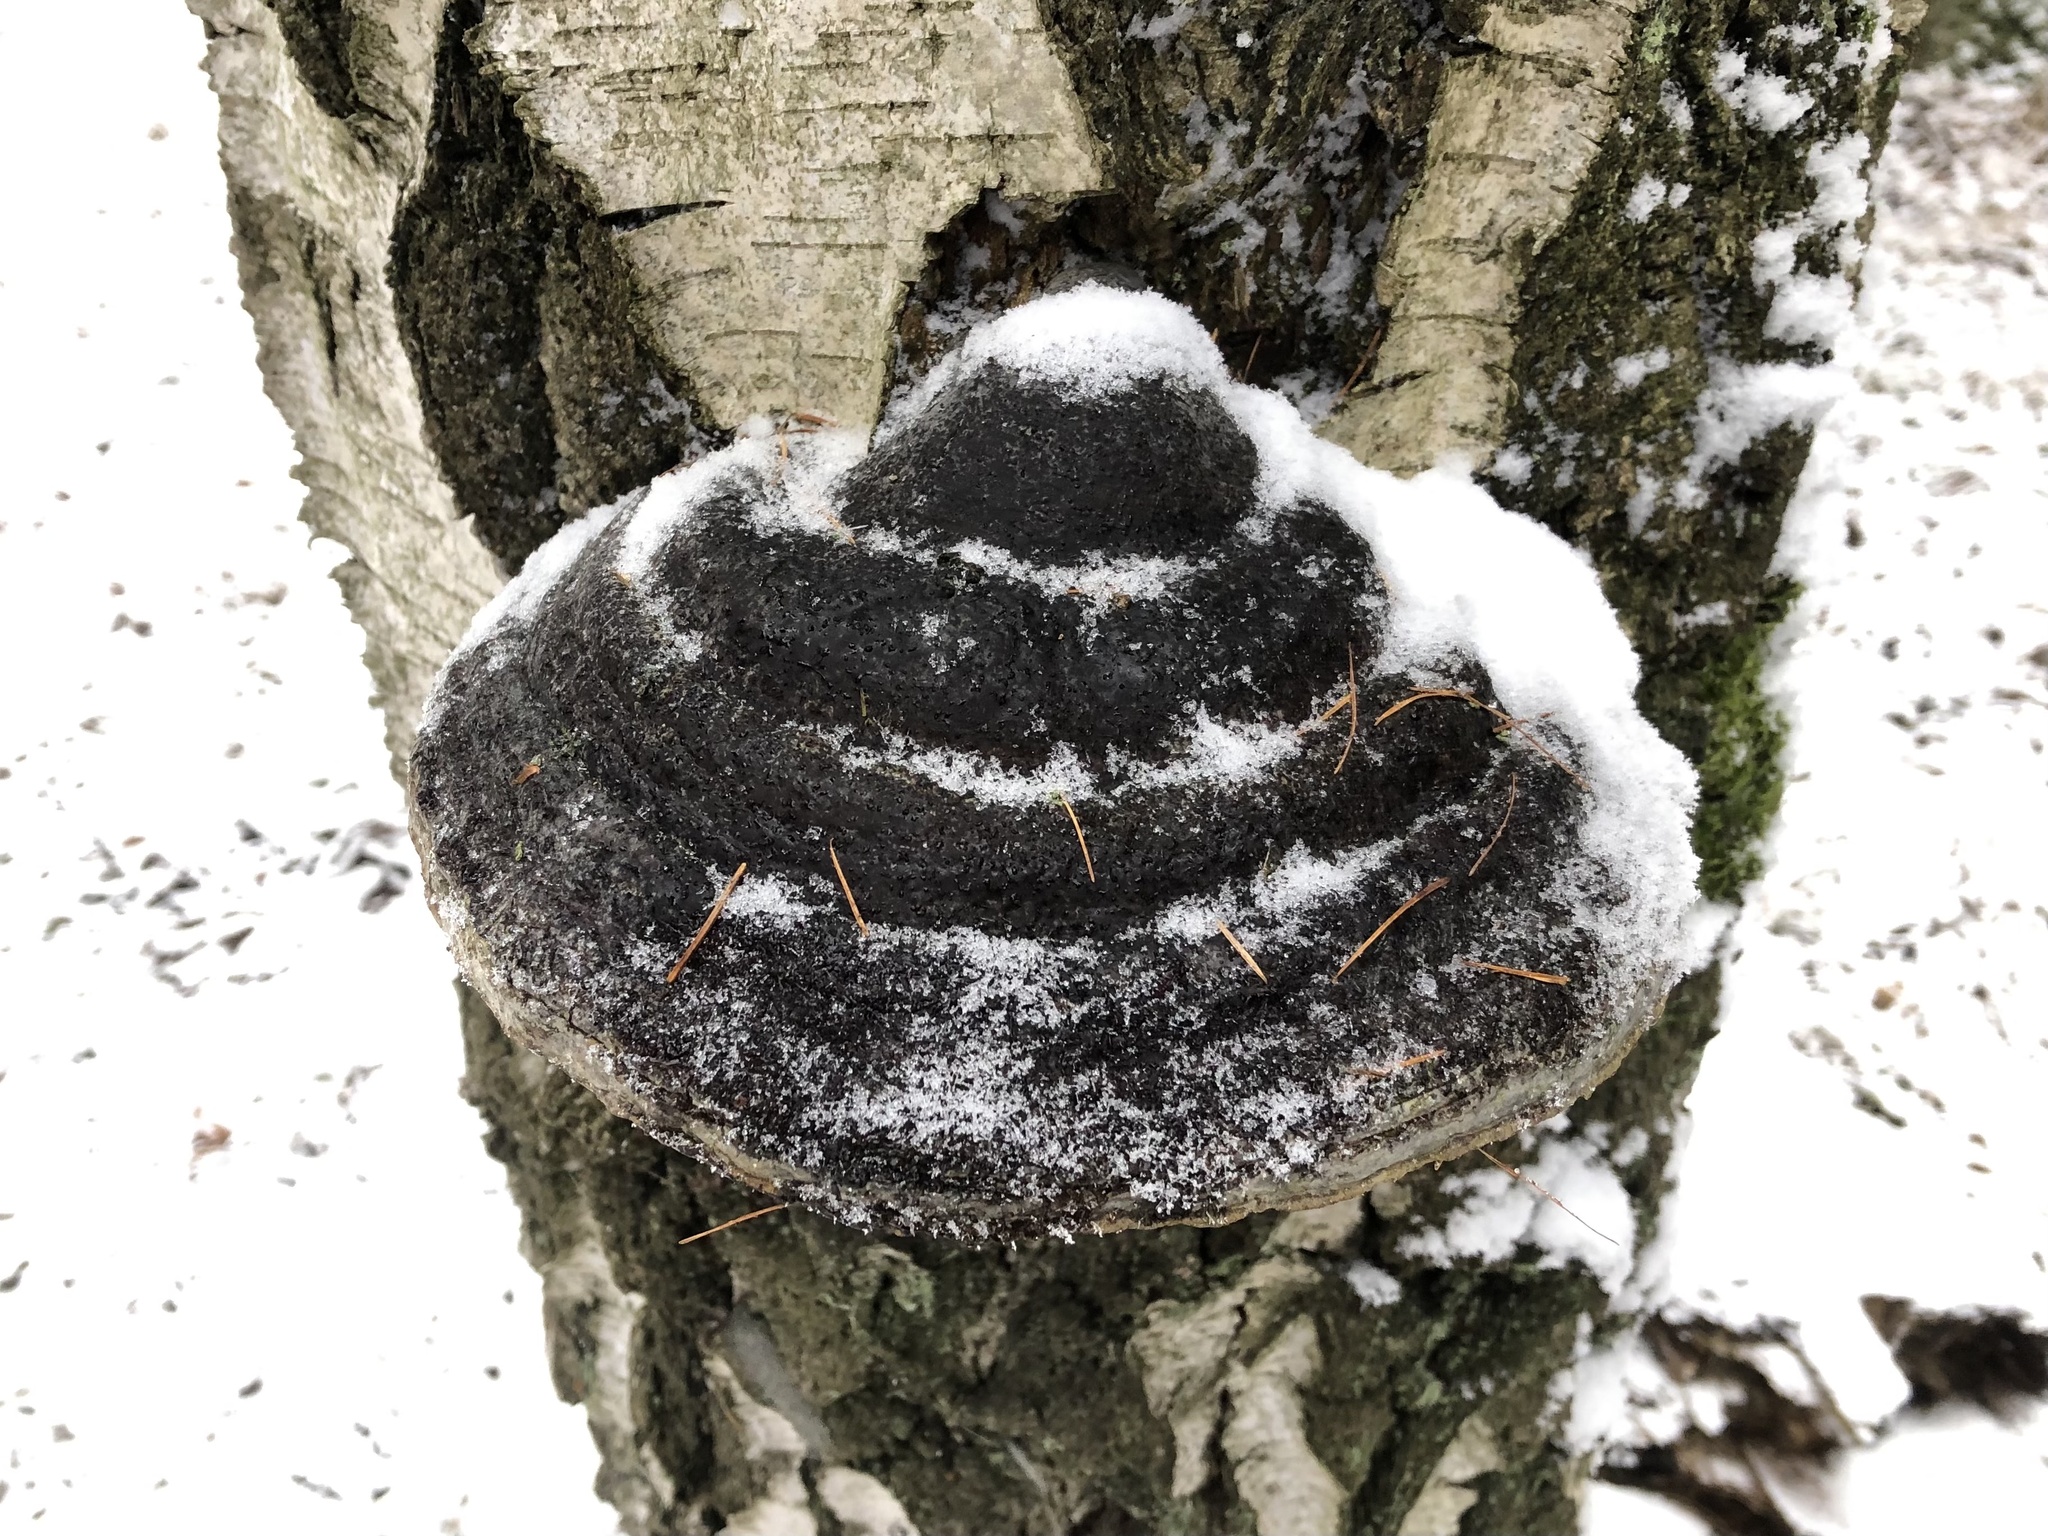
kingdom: Fungi
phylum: Basidiomycota
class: Agaricomycetes
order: Polyporales
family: Polyporaceae
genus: Fomes
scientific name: Fomes fomentarius
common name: Hoof fungus
